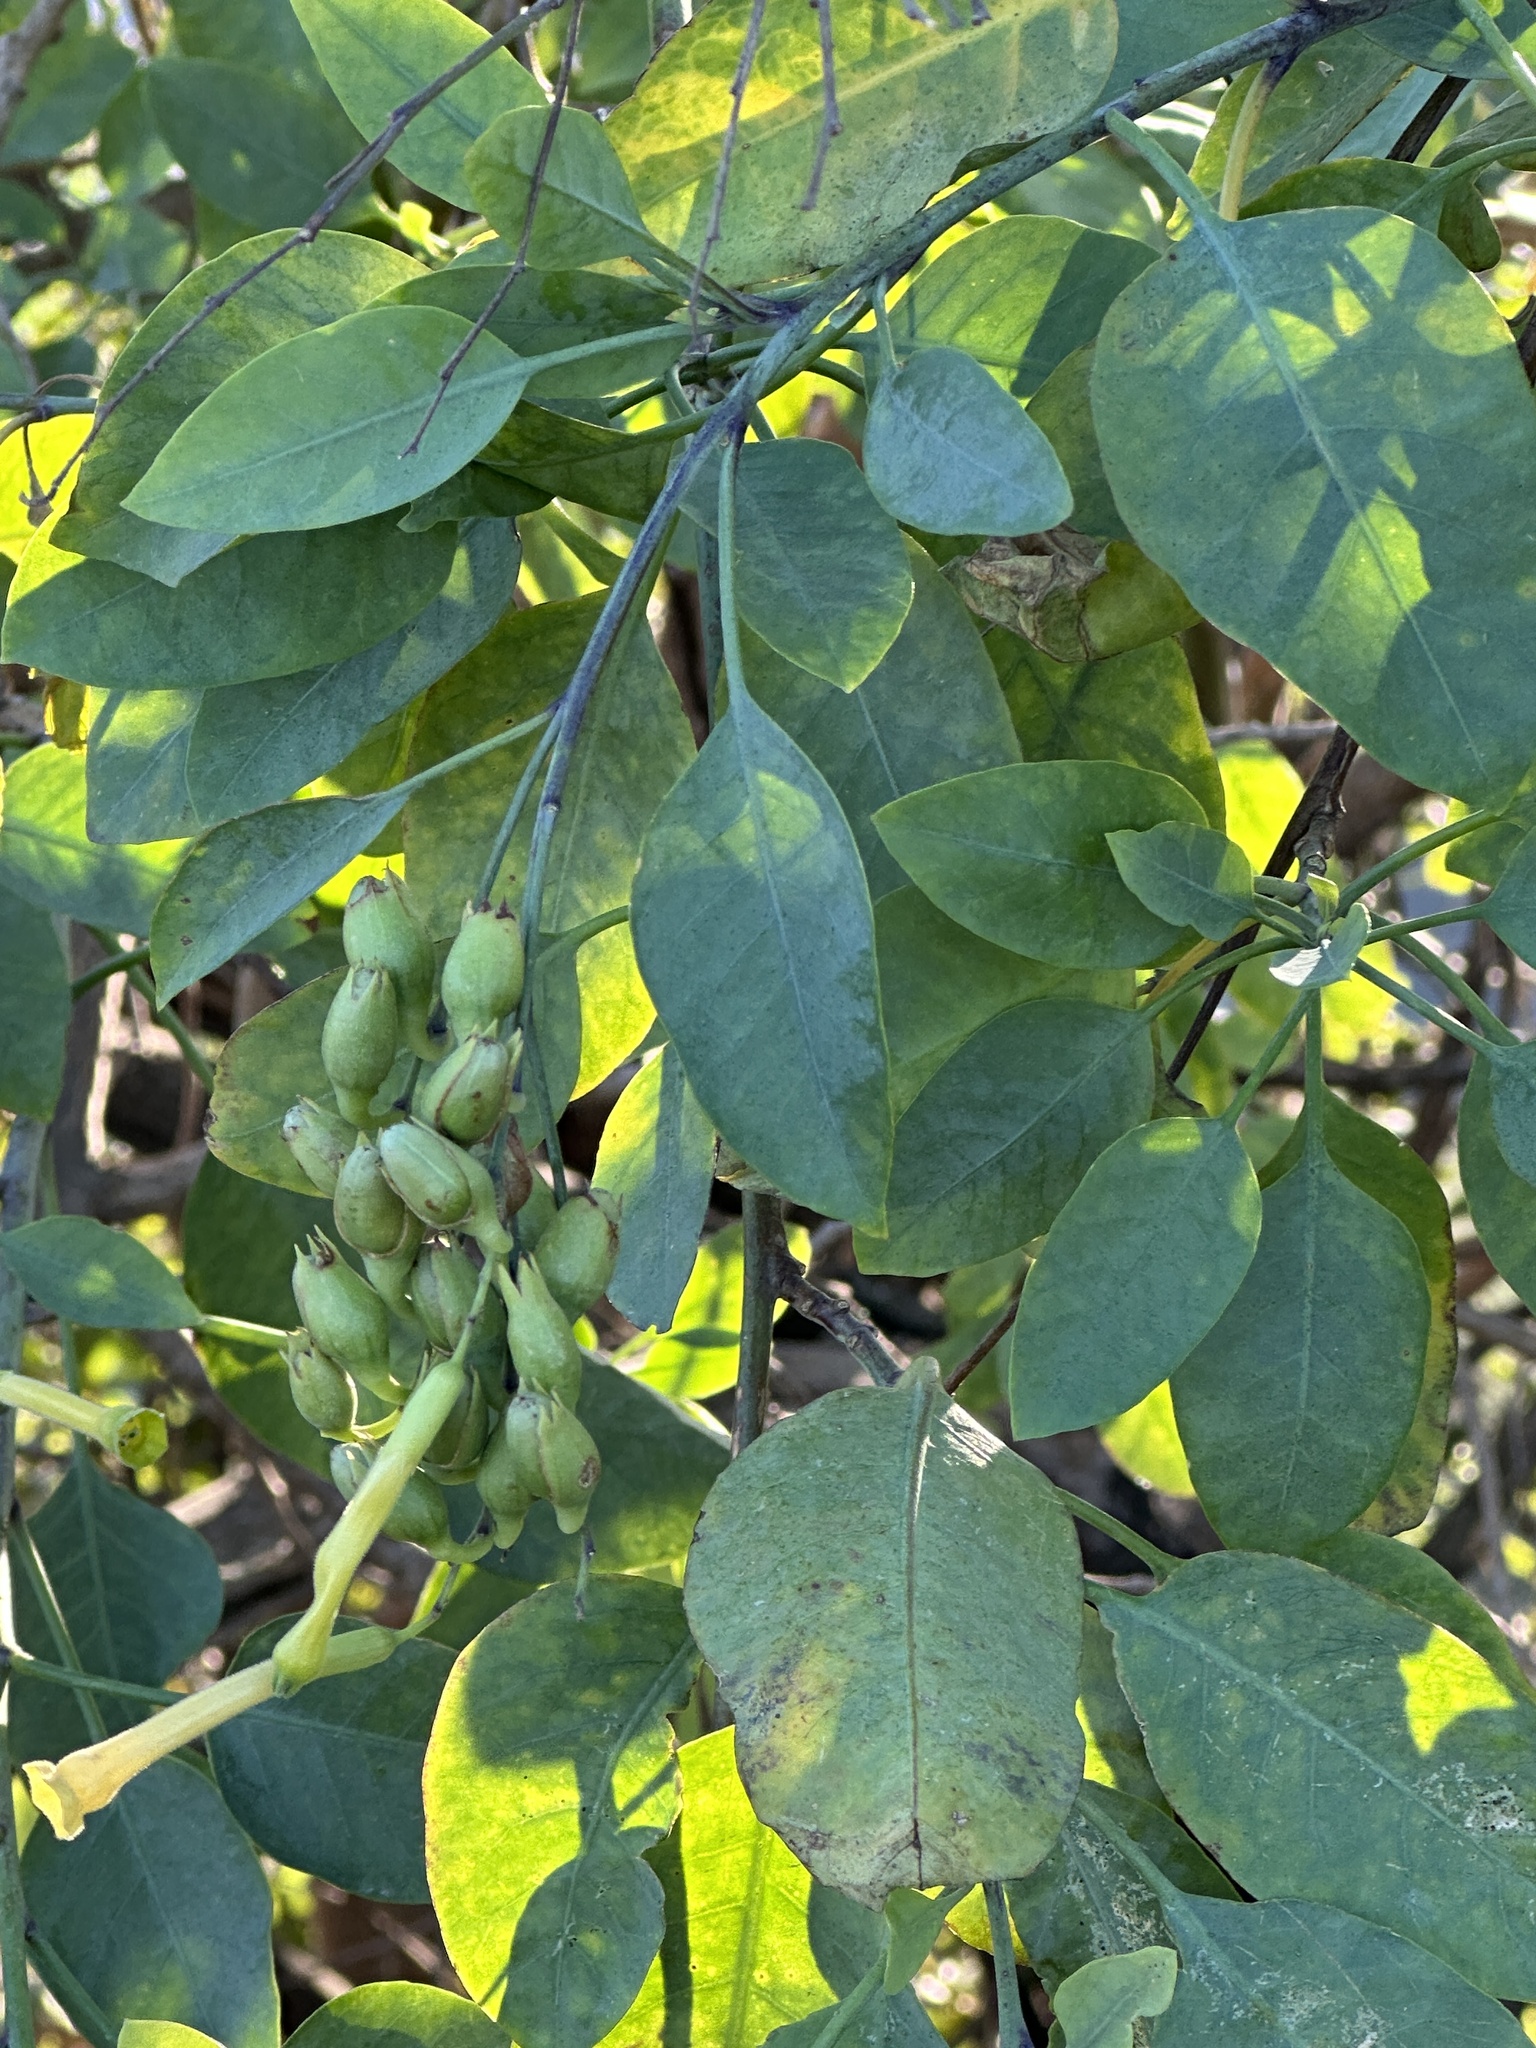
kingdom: Plantae
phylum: Tracheophyta
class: Magnoliopsida
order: Solanales
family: Solanaceae
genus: Nicotiana
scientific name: Nicotiana glauca
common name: Tree tobacco
